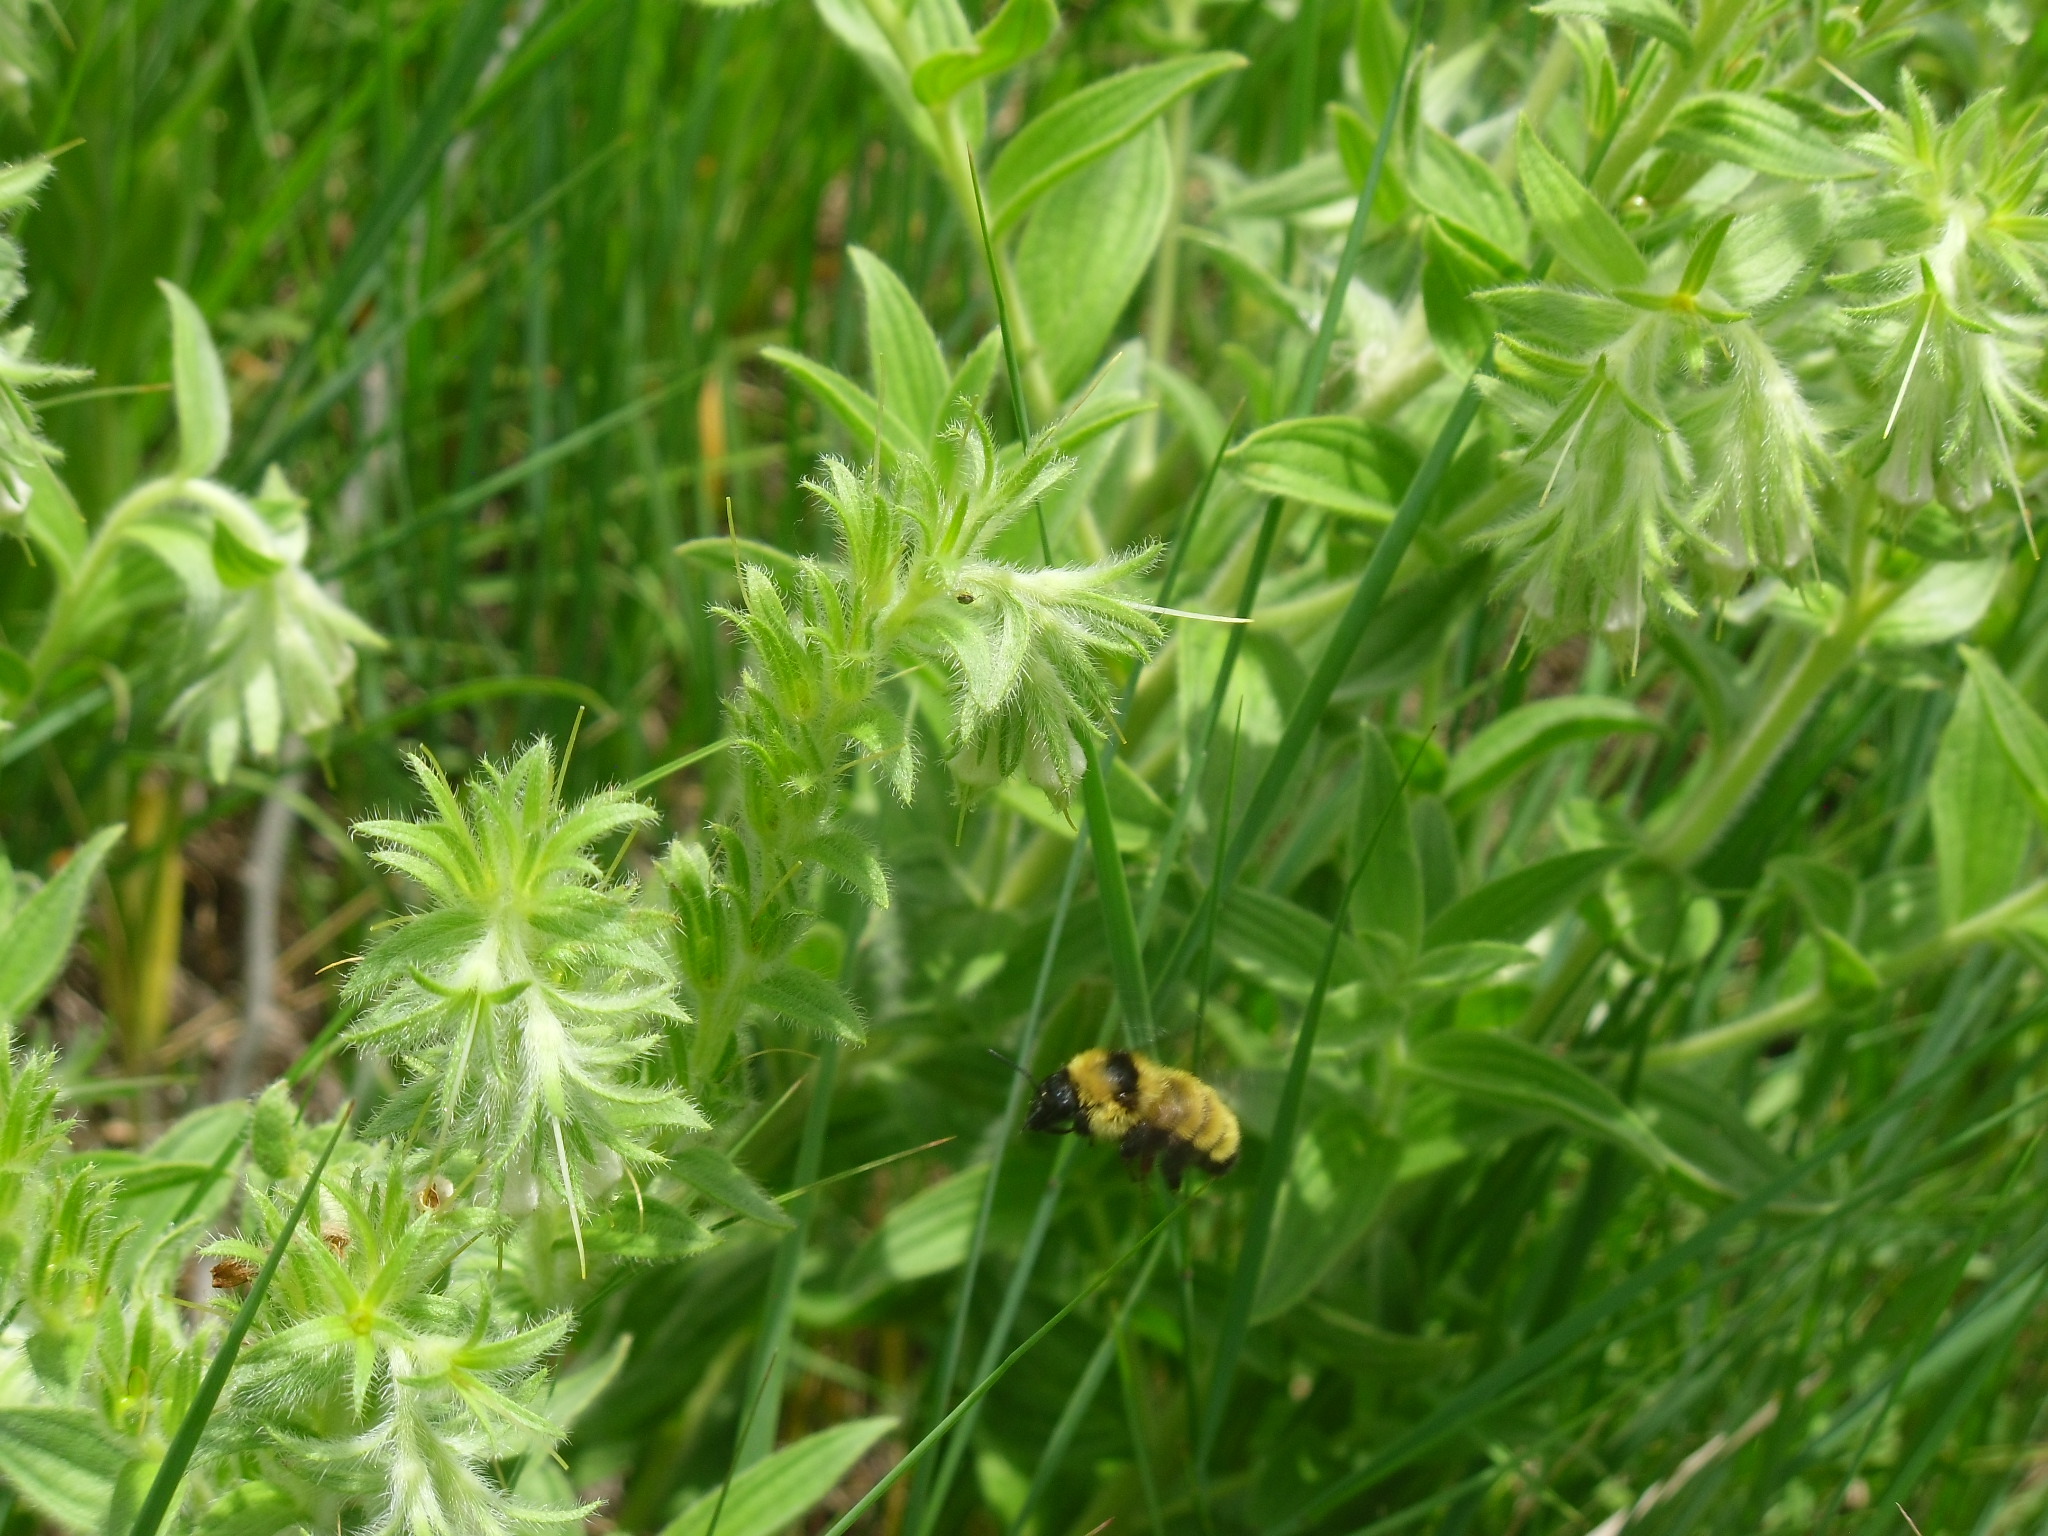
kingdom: Animalia
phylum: Arthropoda
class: Insecta
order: Hymenoptera
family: Apidae
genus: Bombus
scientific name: Bombus fervidus
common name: Yellow bumble bee
